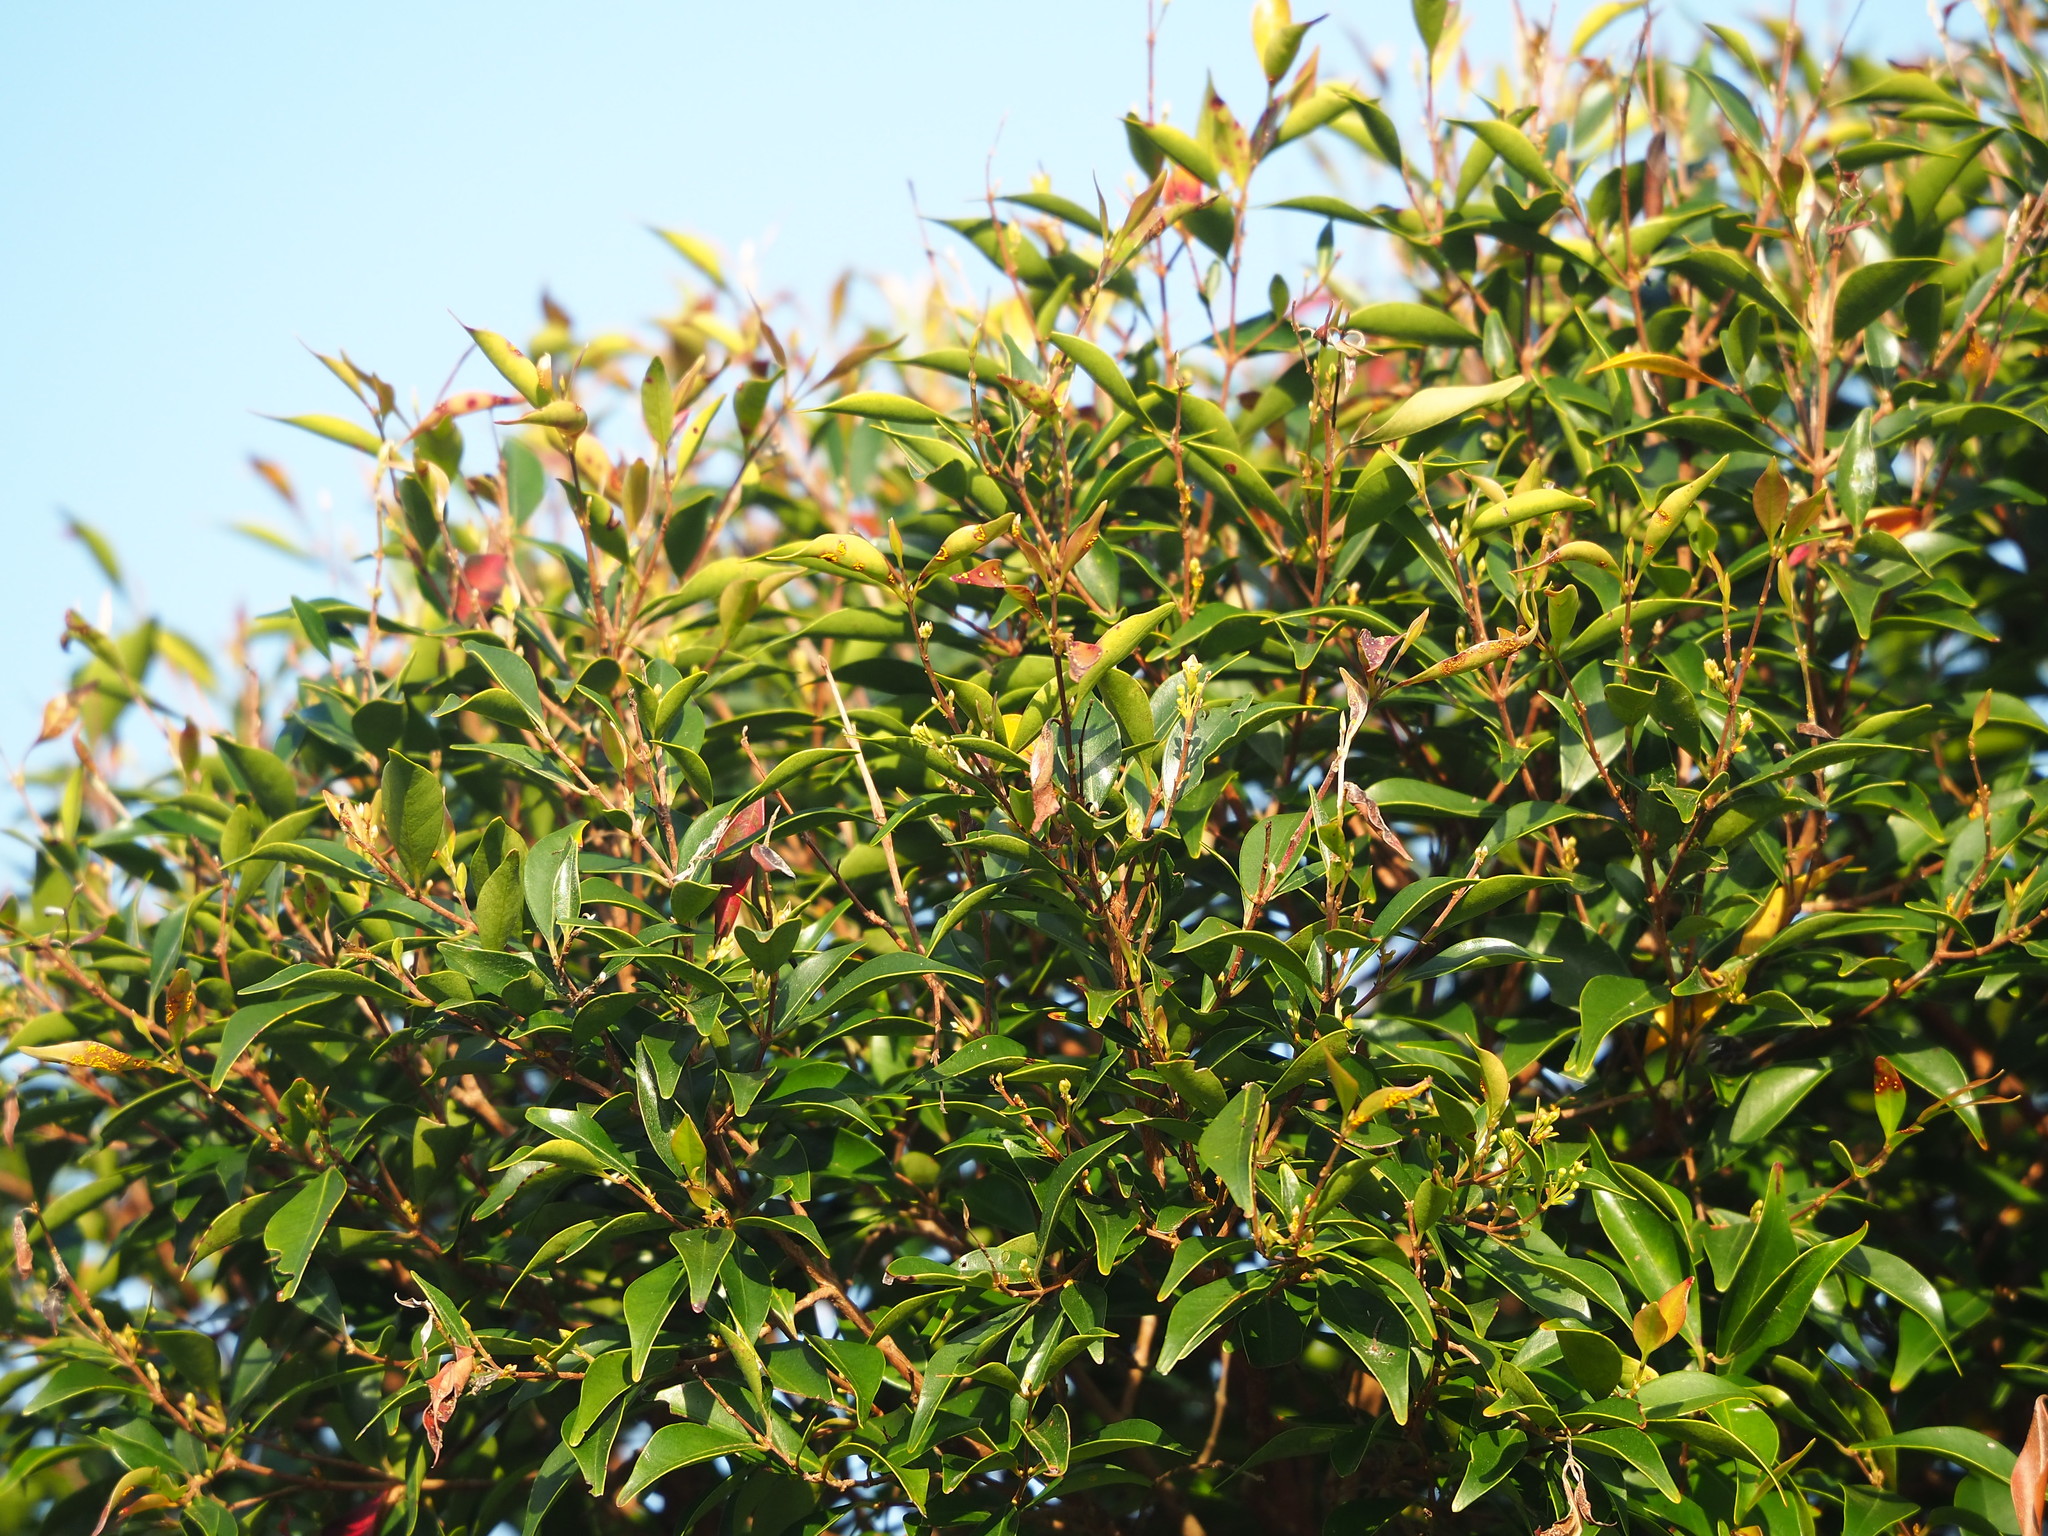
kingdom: Plantae
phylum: Tracheophyta
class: Magnoliopsida
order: Myrtales
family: Myrtaceae
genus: Decaspermum
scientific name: Decaspermum gracilentum
